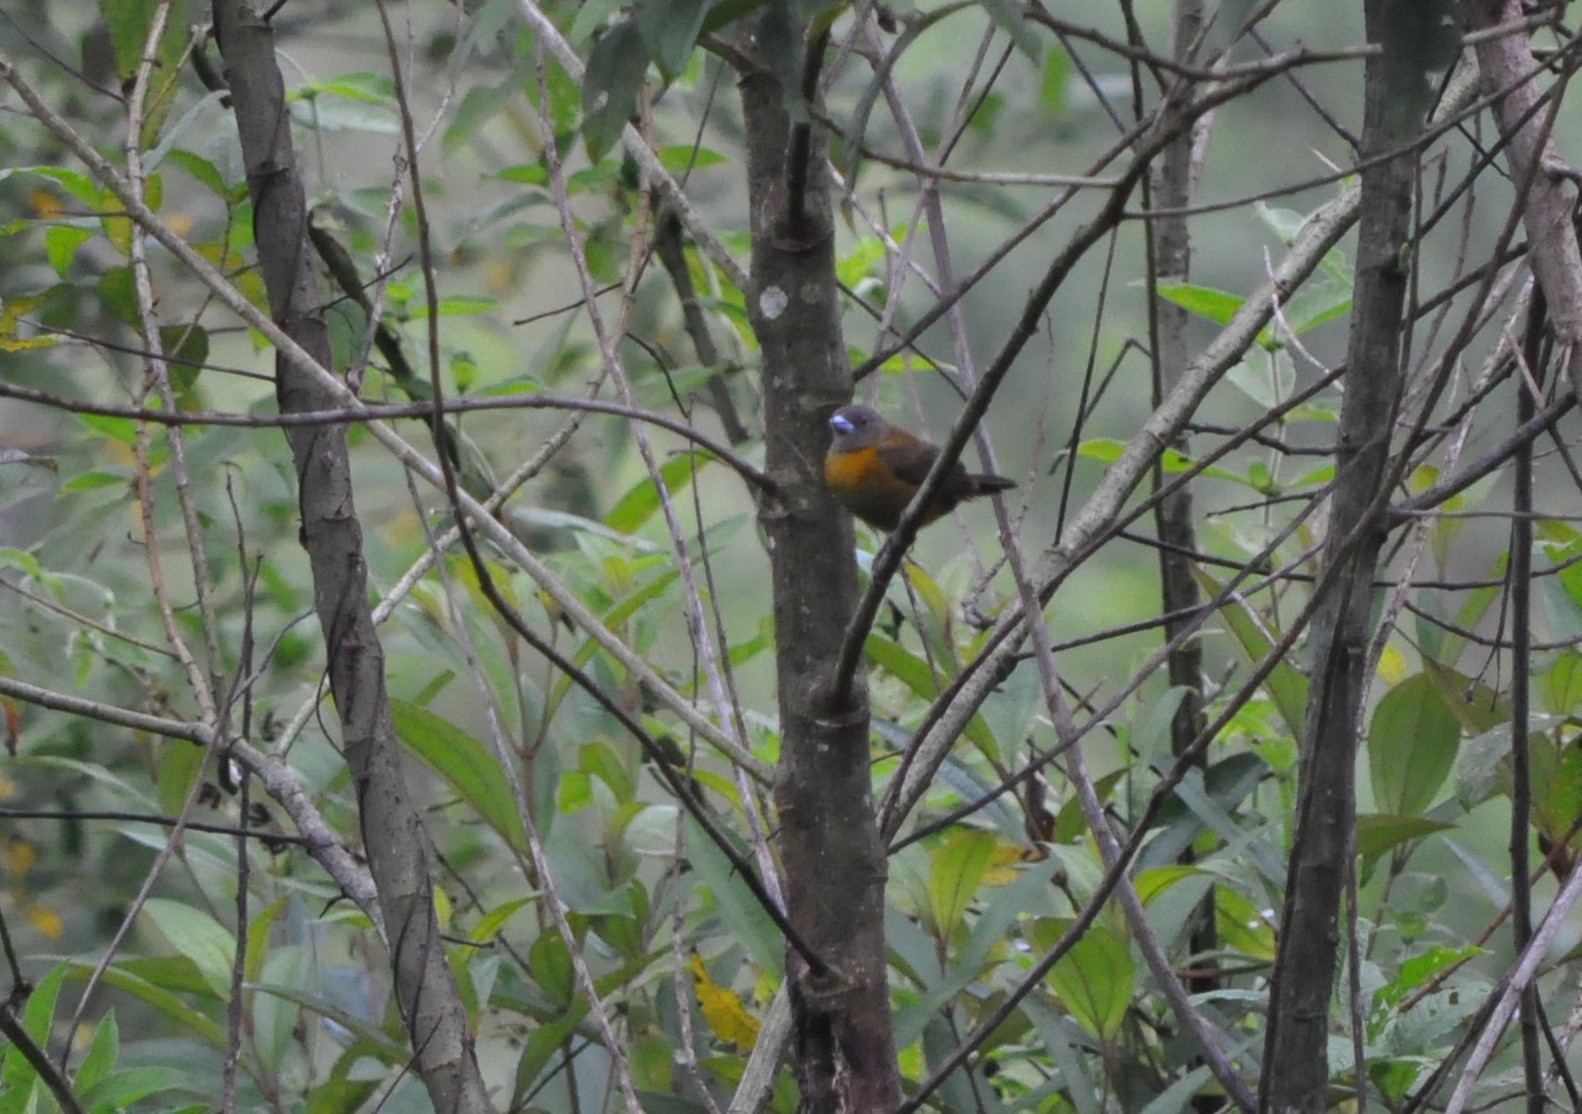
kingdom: Animalia
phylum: Chordata
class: Aves
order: Passeriformes
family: Thraupidae
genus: Ramphocelus
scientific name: Ramphocelus passerinii
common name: Passerini's tanager
